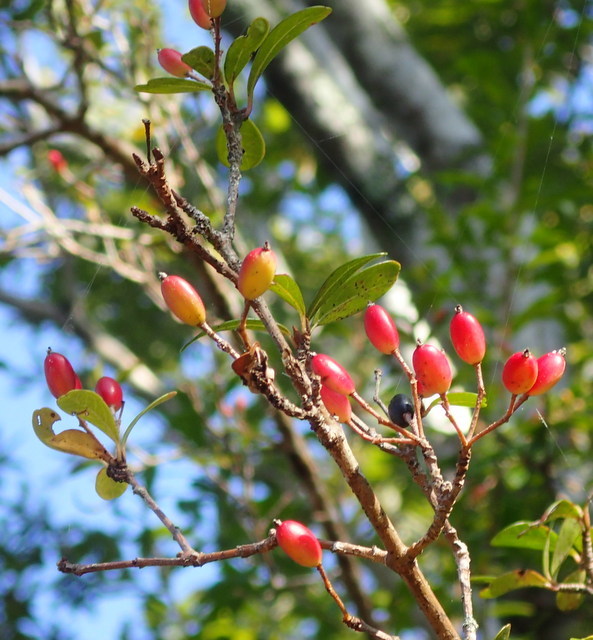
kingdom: Plantae
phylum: Tracheophyta
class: Magnoliopsida
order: Dipsacales
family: Viburnaceae
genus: Viburnum
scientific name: Viburnum obovatum
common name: Walter's viburnum
